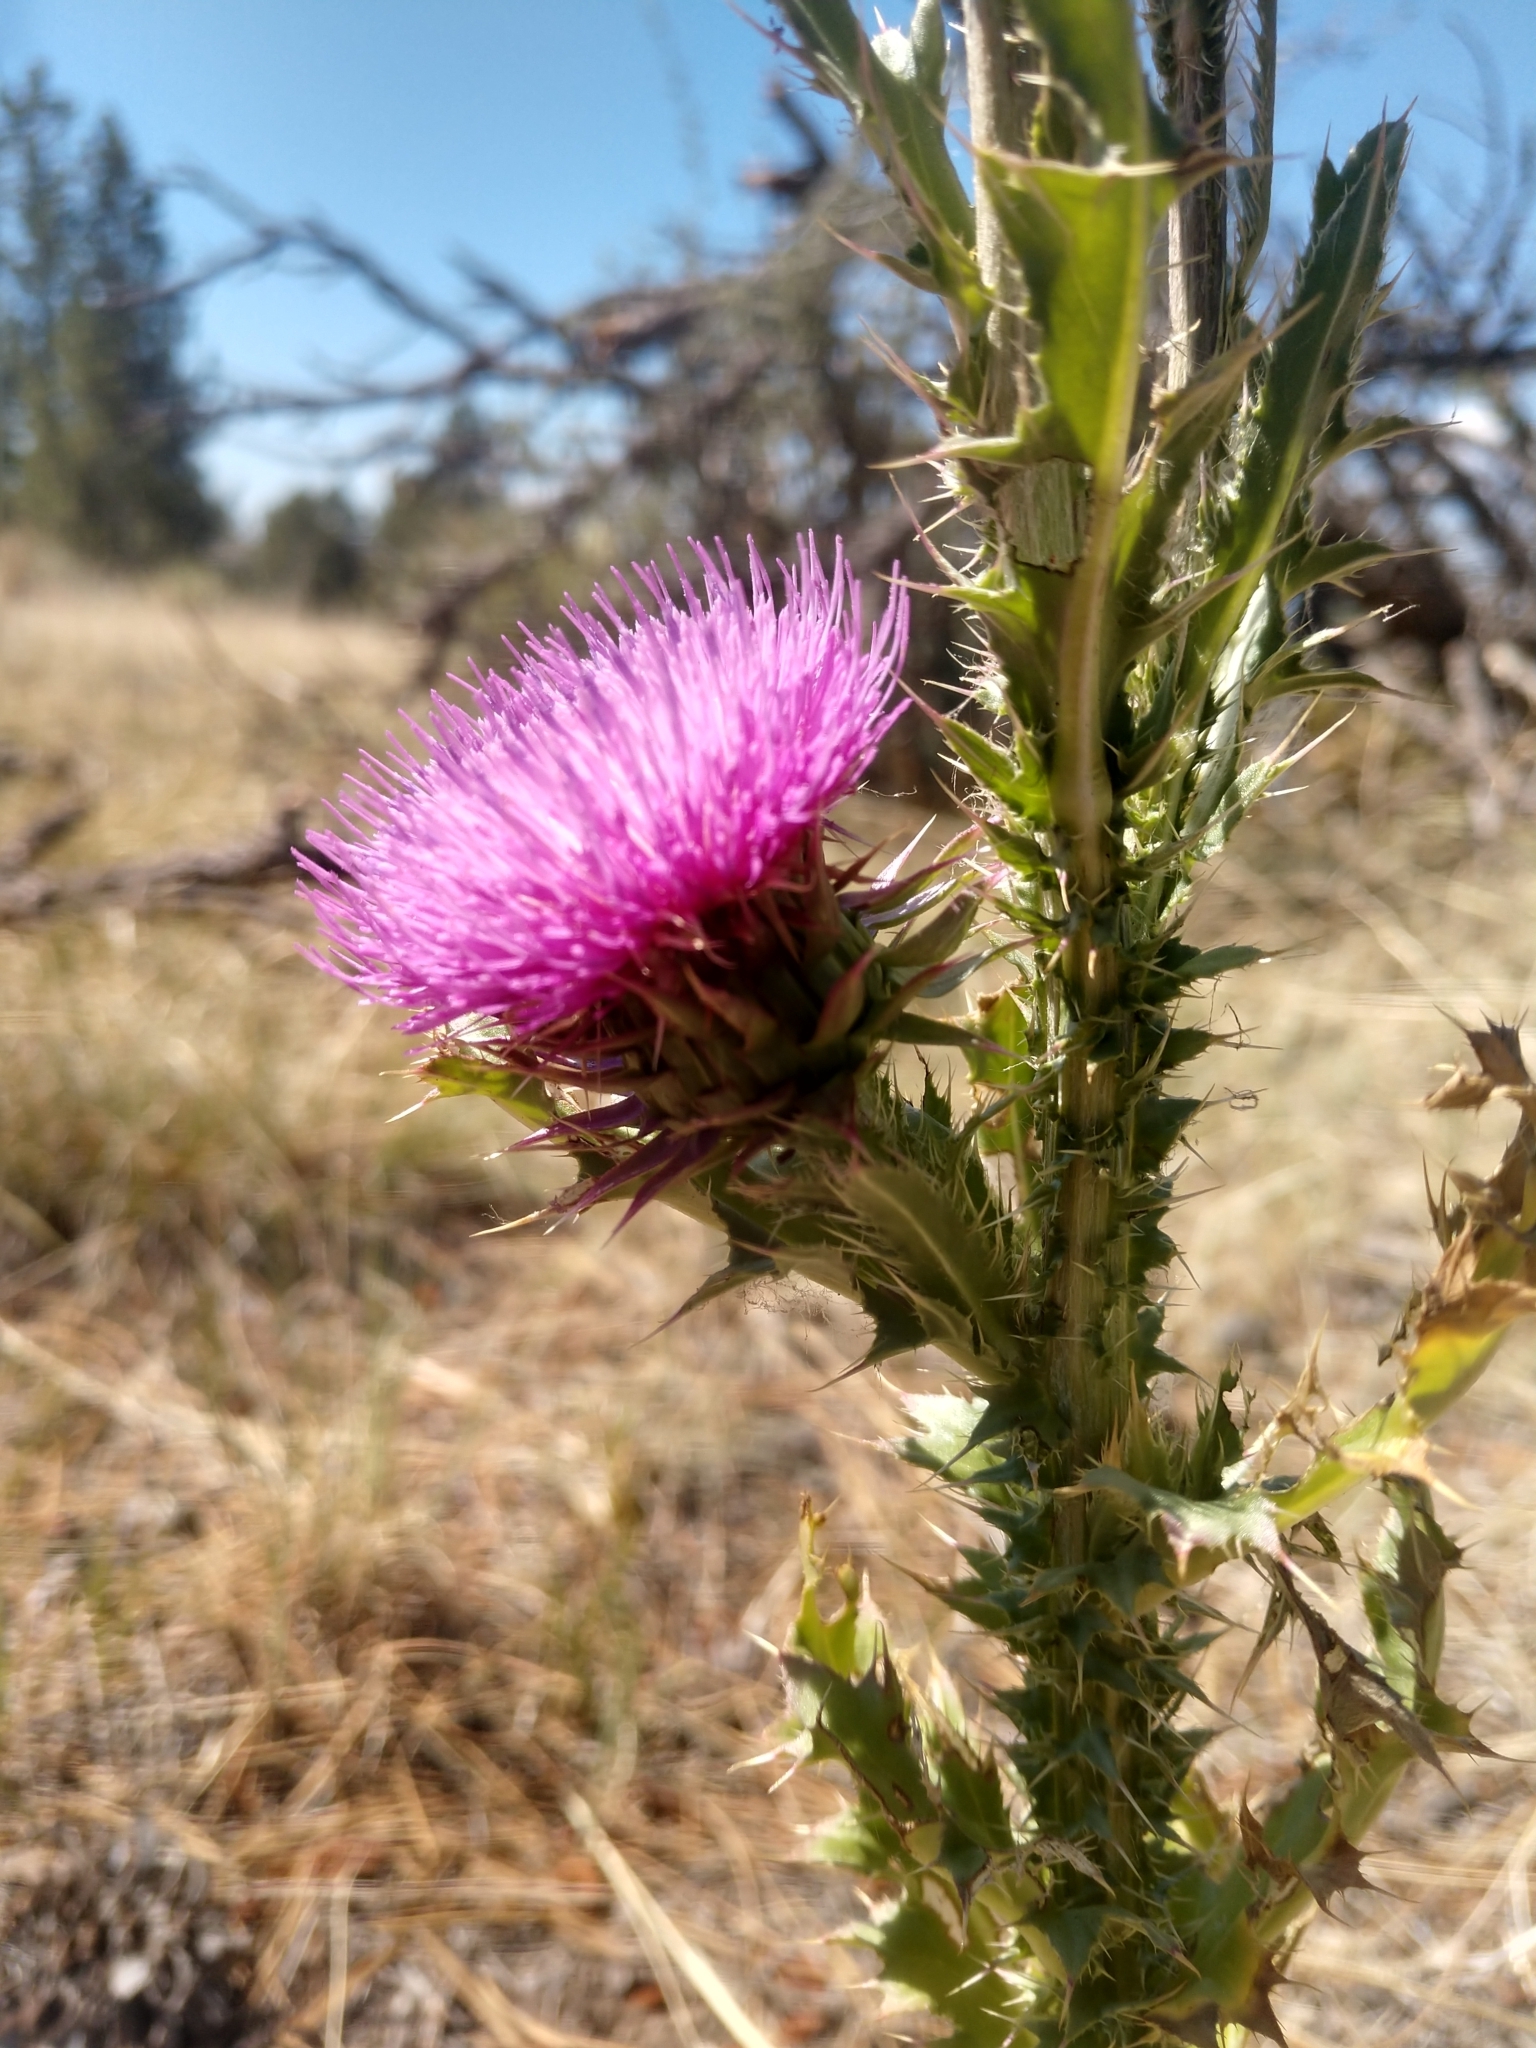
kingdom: Plantae
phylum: Tracheophyta
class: Magnoliopsida
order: Asterales
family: Asteraceae
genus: Carduus
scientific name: Carduus nutans
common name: Musk thistle
